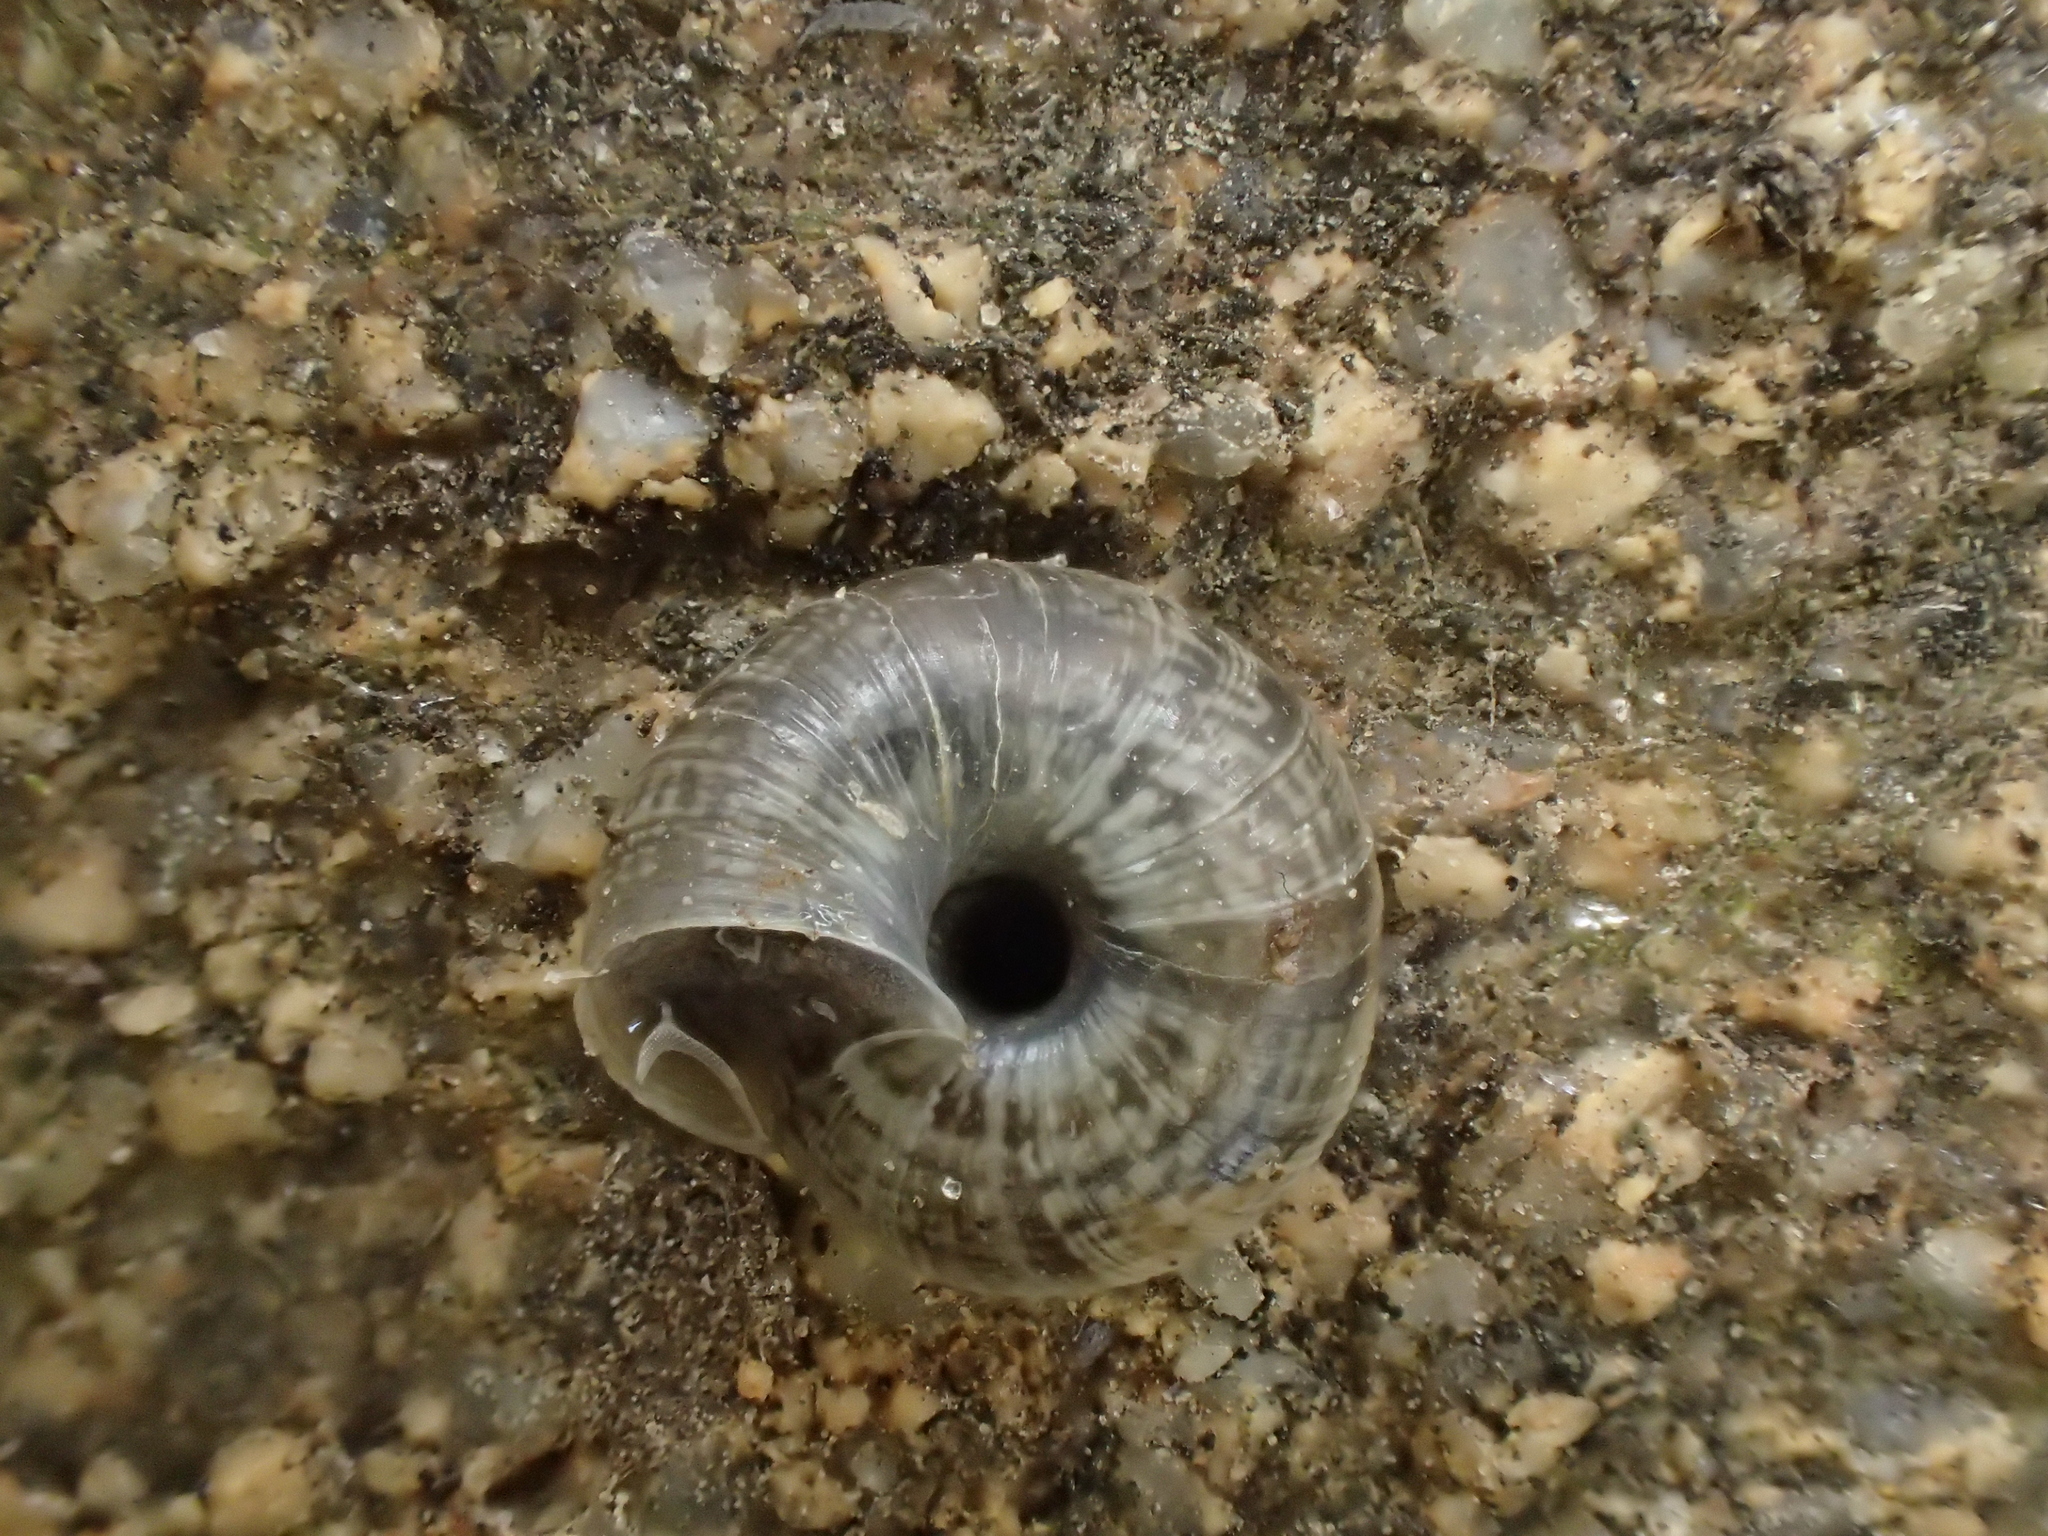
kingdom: Animalia
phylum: Mollusca
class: Gastropoda
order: Stylommatophora
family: Geomitridae
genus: Xeroplexa
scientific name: Xeroplexa intersecta
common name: Wrinkled snail
